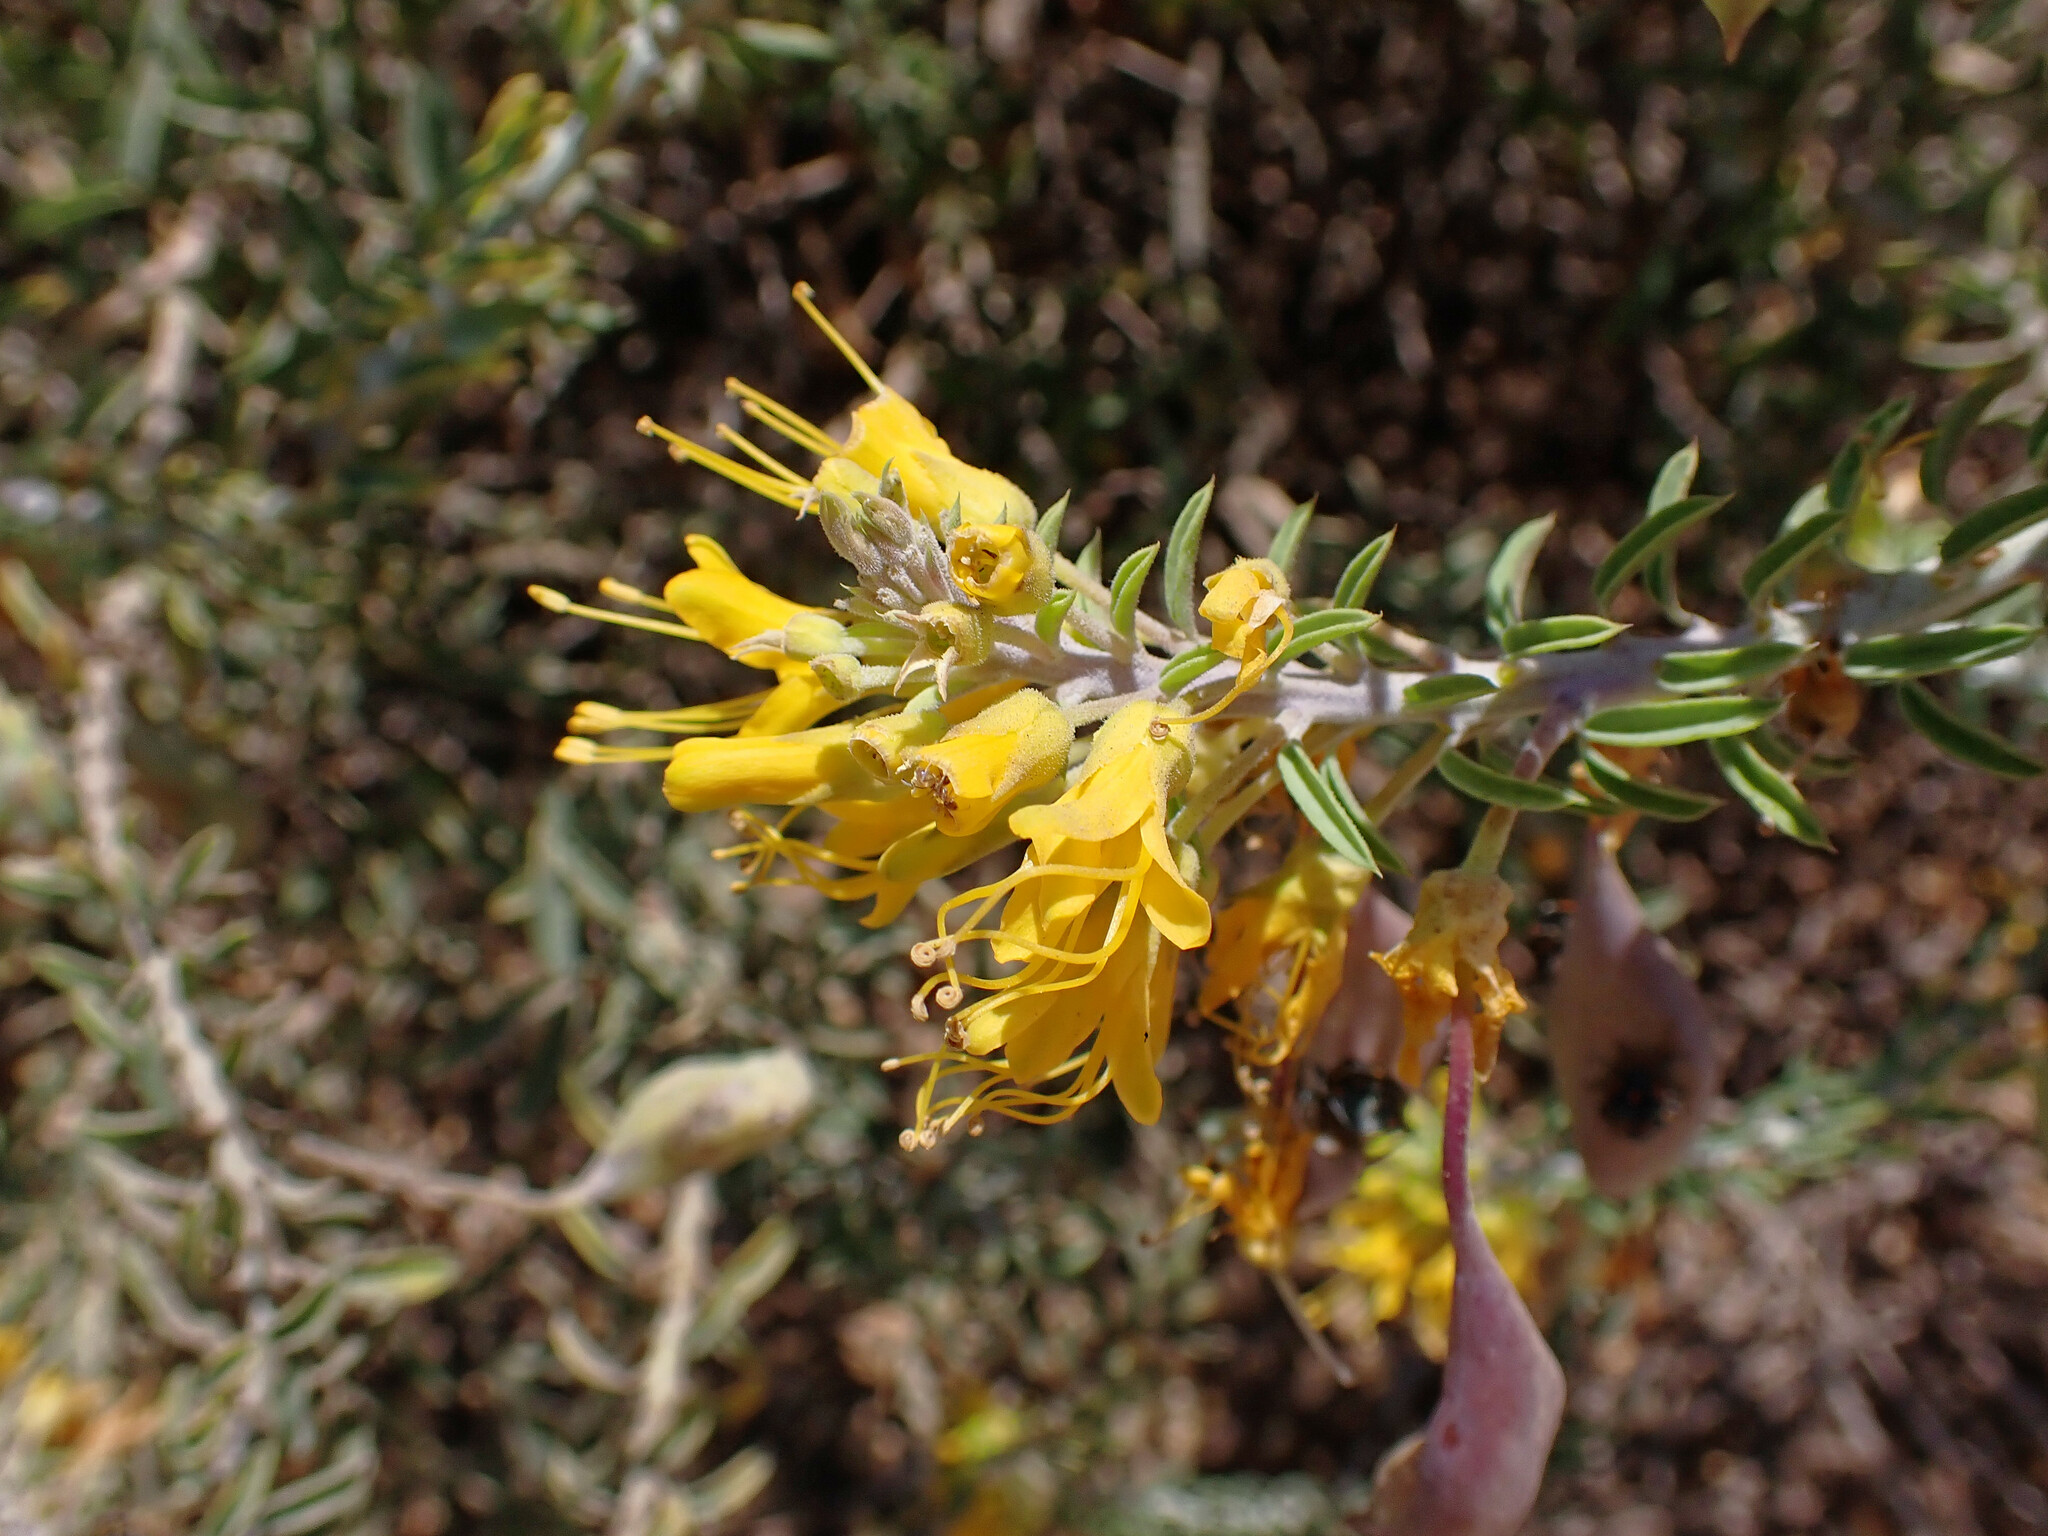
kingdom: Plantae
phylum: Tracheophyta
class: Magnoliopsida
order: Brassicales
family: Cleomaceae
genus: Cleomella
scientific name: Cleomella arborea
